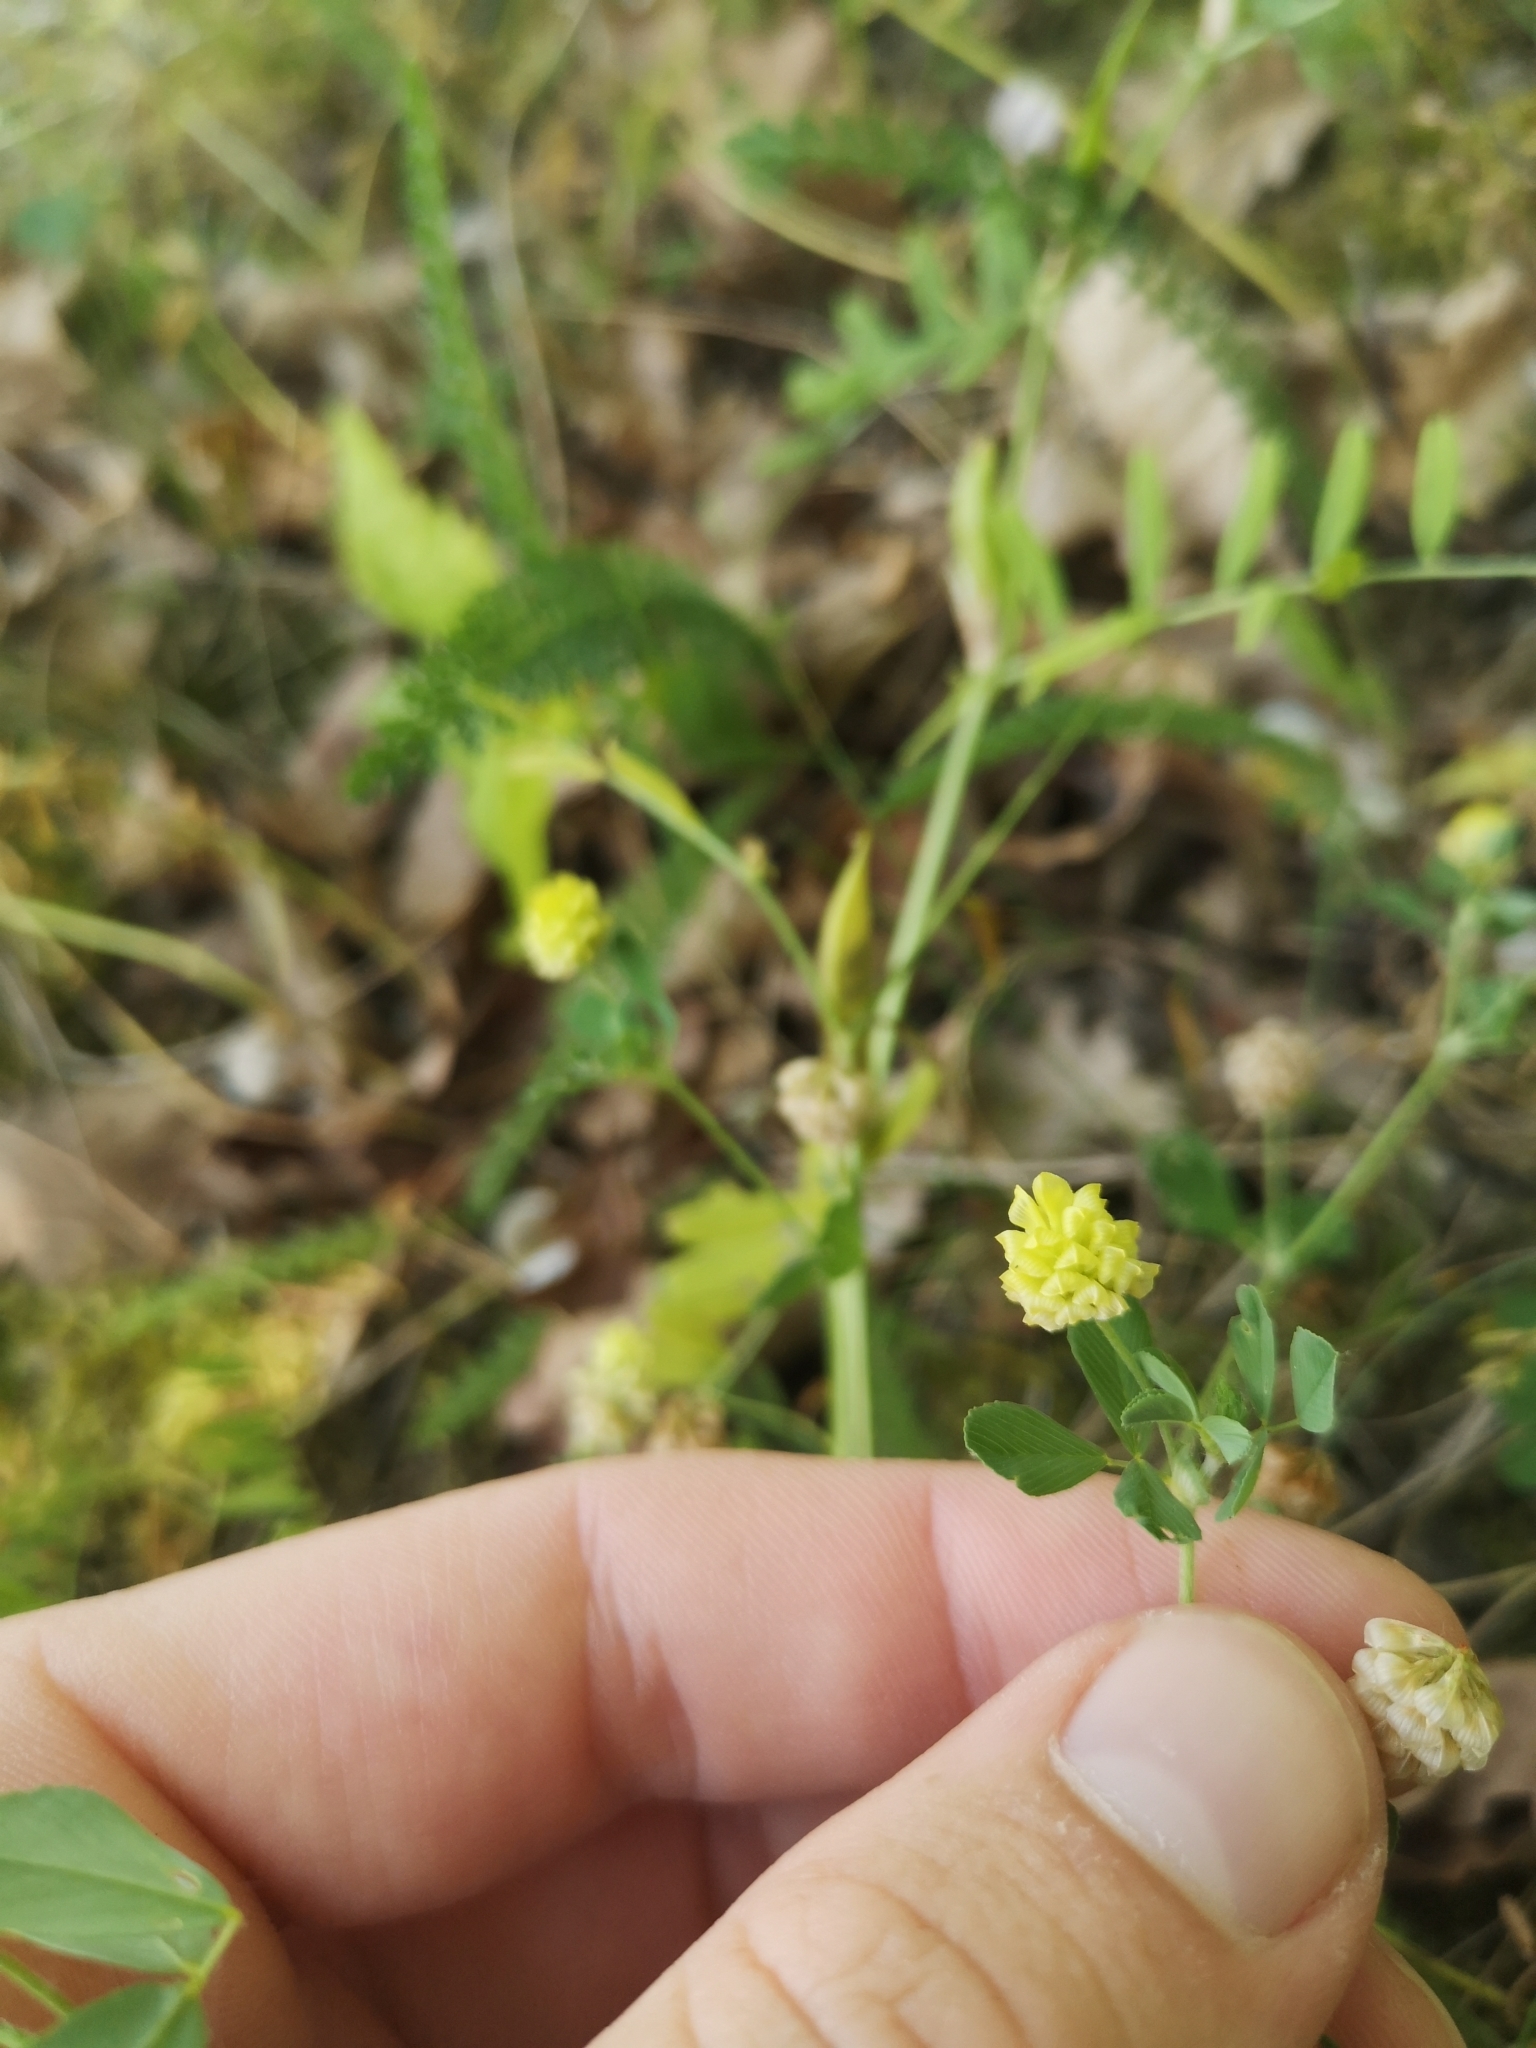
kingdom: Plantae
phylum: Tracheophyta
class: Magnoliopsida
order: Fabales
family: Fabaceae
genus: Trifolium
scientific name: Trifolium campestre
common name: Field clover
